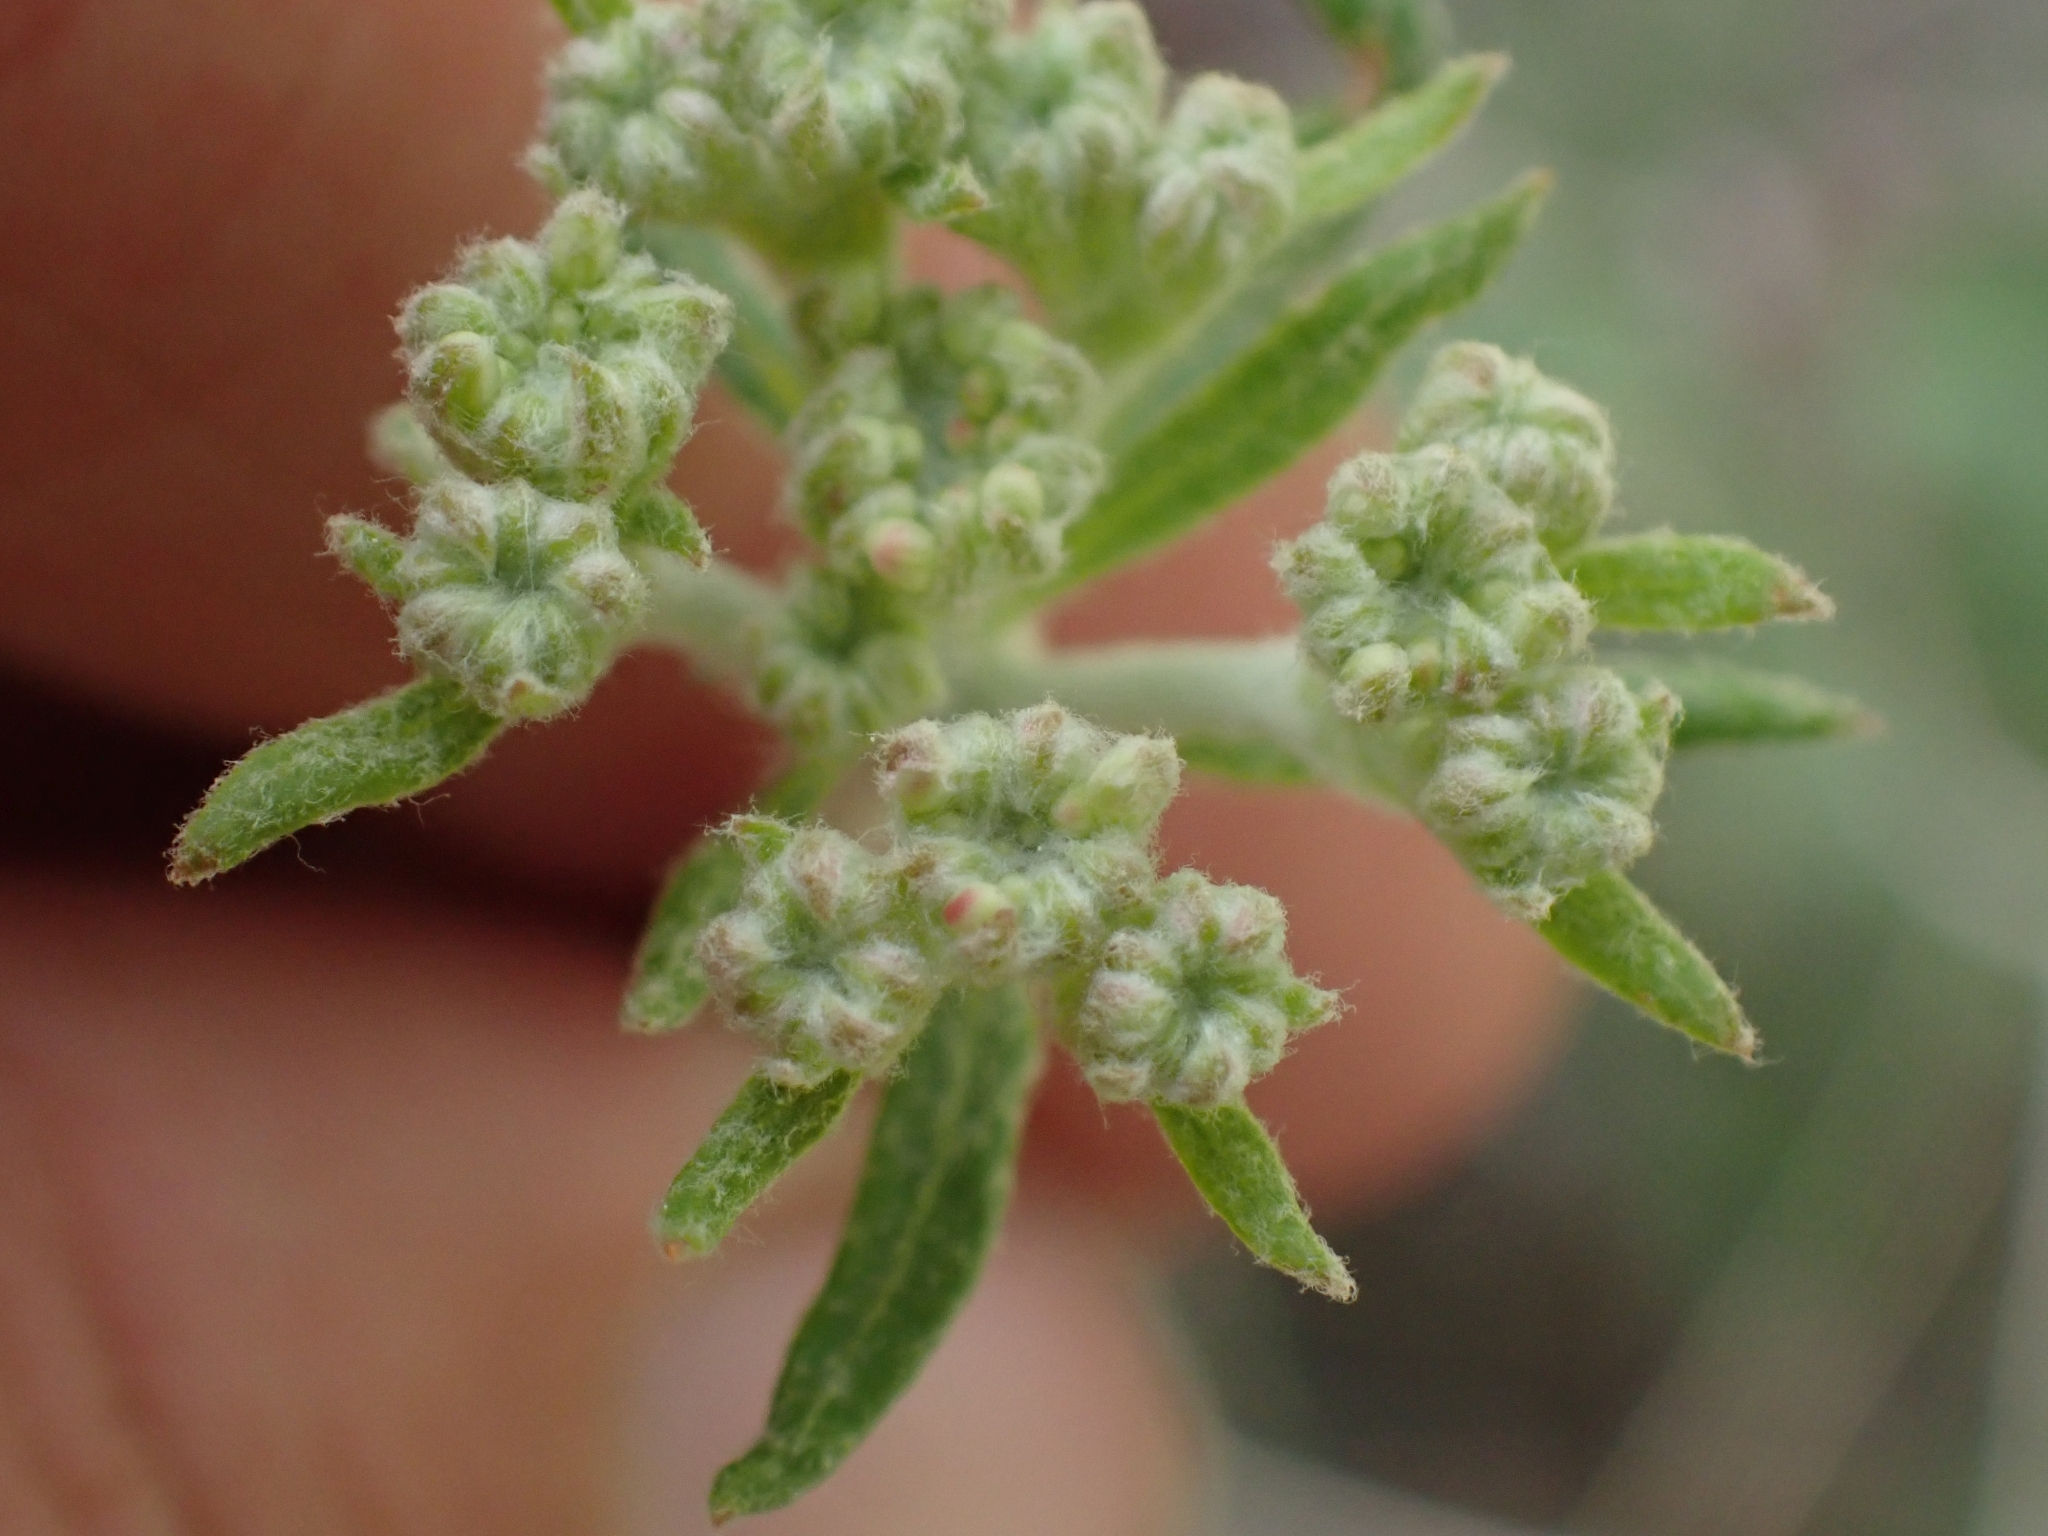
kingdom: Plantae
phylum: Tracheophyta
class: Magnoliopsida
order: Caryophyllales
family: Polygonaceae
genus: Eriogonum
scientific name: Eriogonum heracleoides
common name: Wyeth's buckwheat
